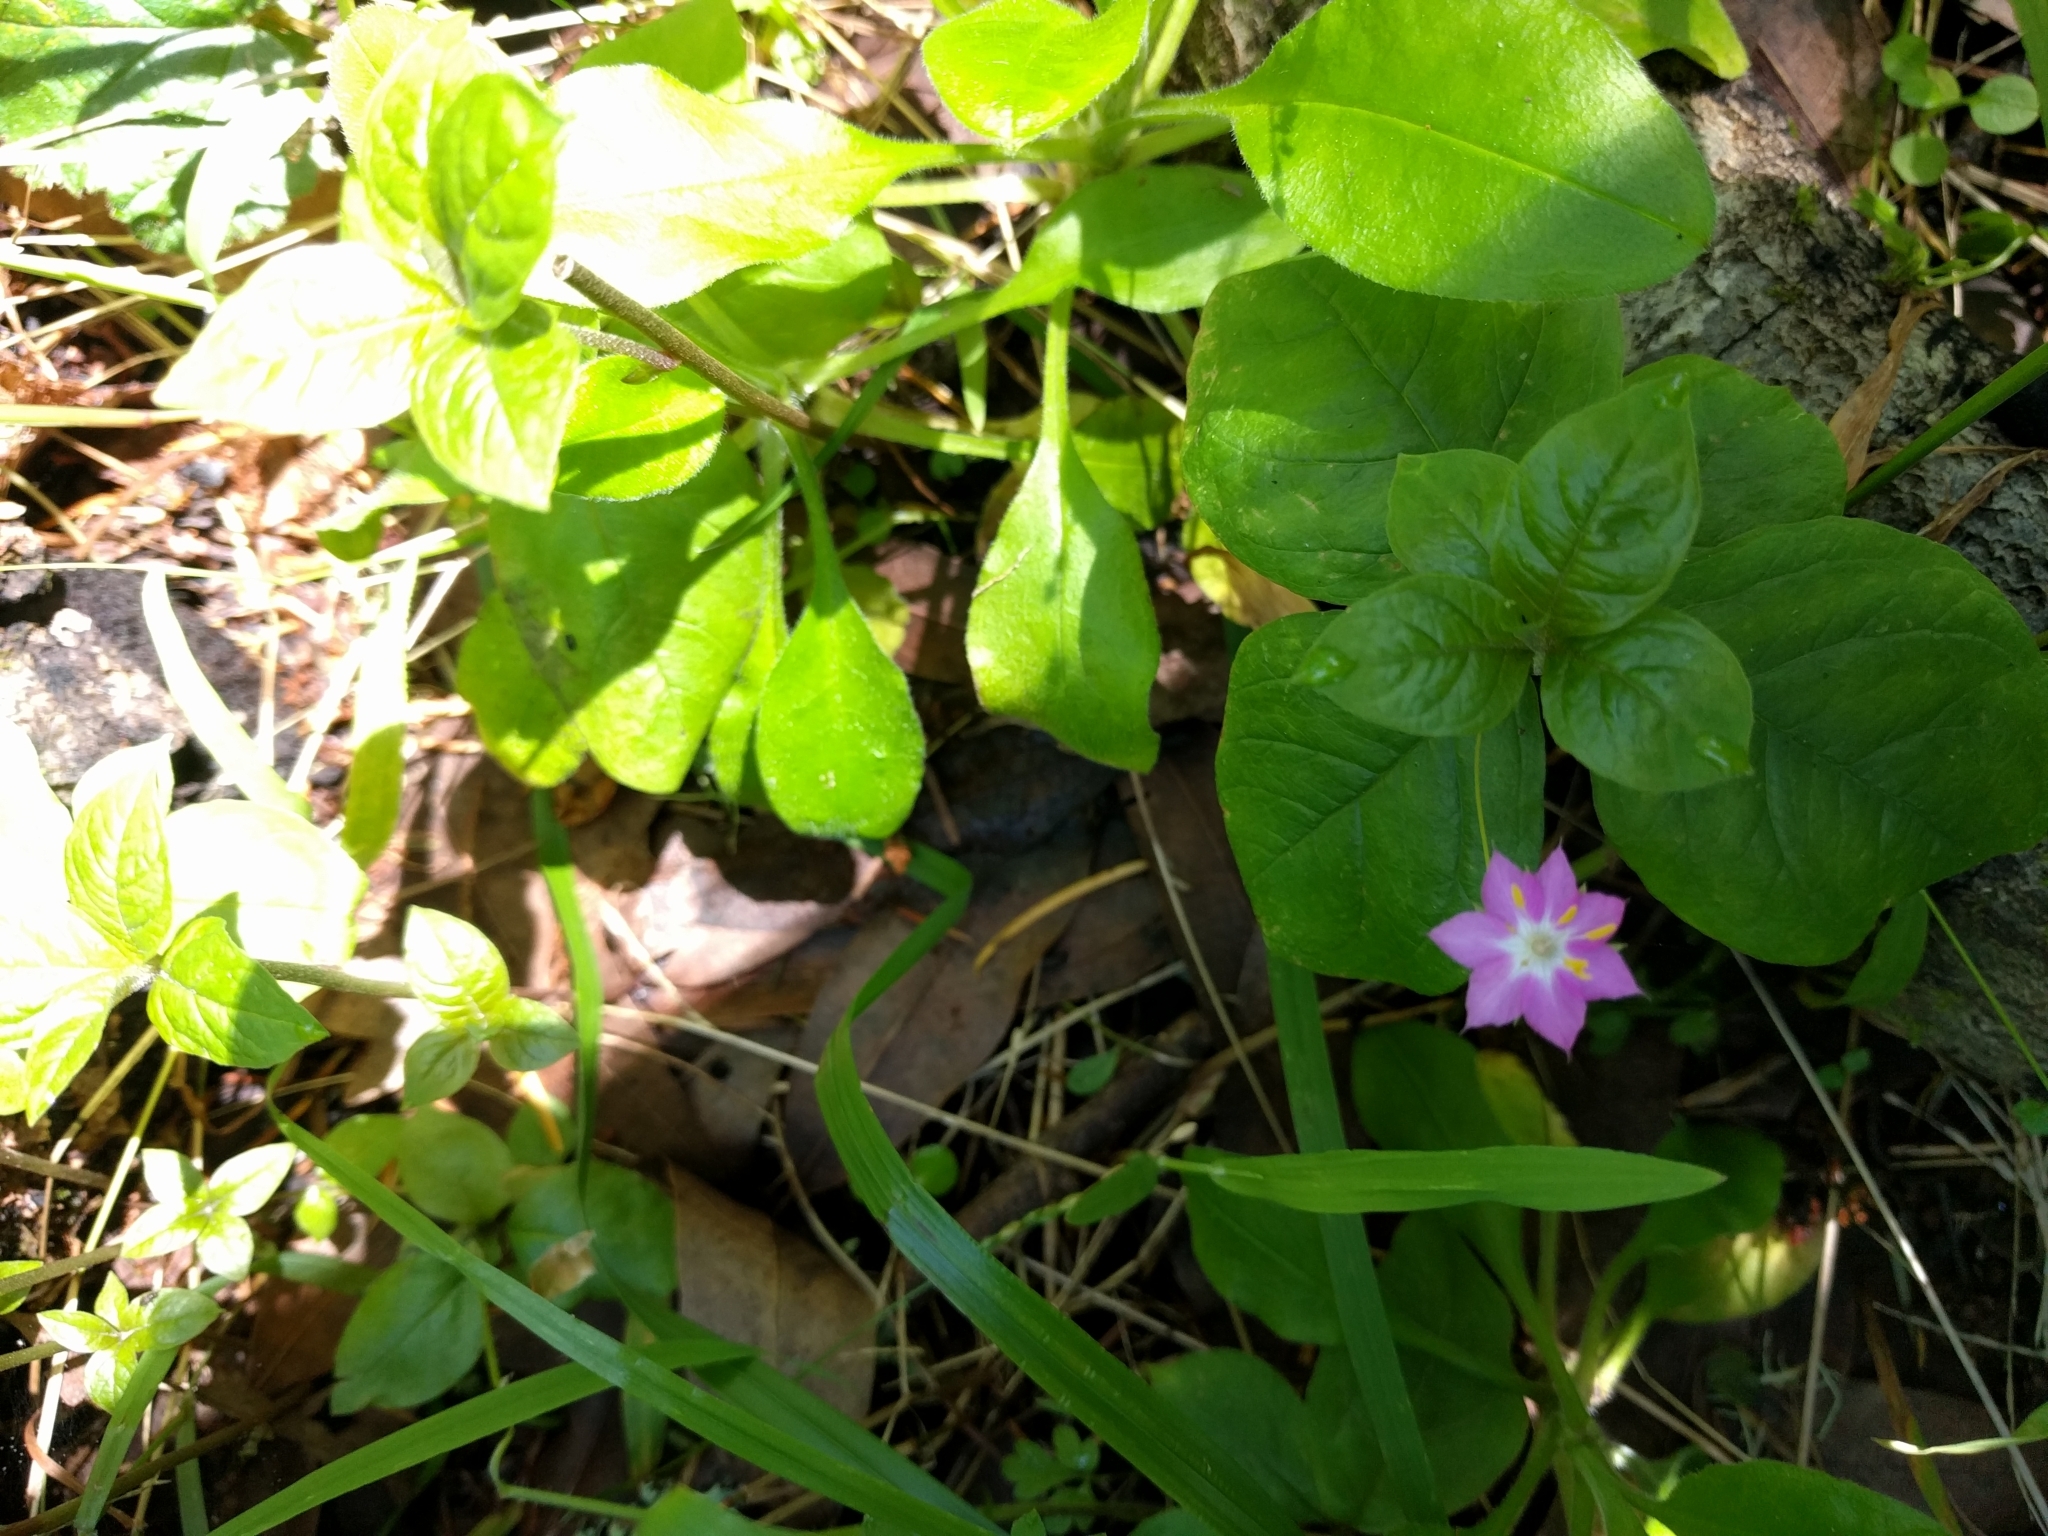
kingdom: Plantae
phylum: Tracheophyta
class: Magnoliopsida
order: Ericales
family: Primulaceae
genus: Lysimachia
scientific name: Lysimachia latifolia
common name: Pacific starflower
